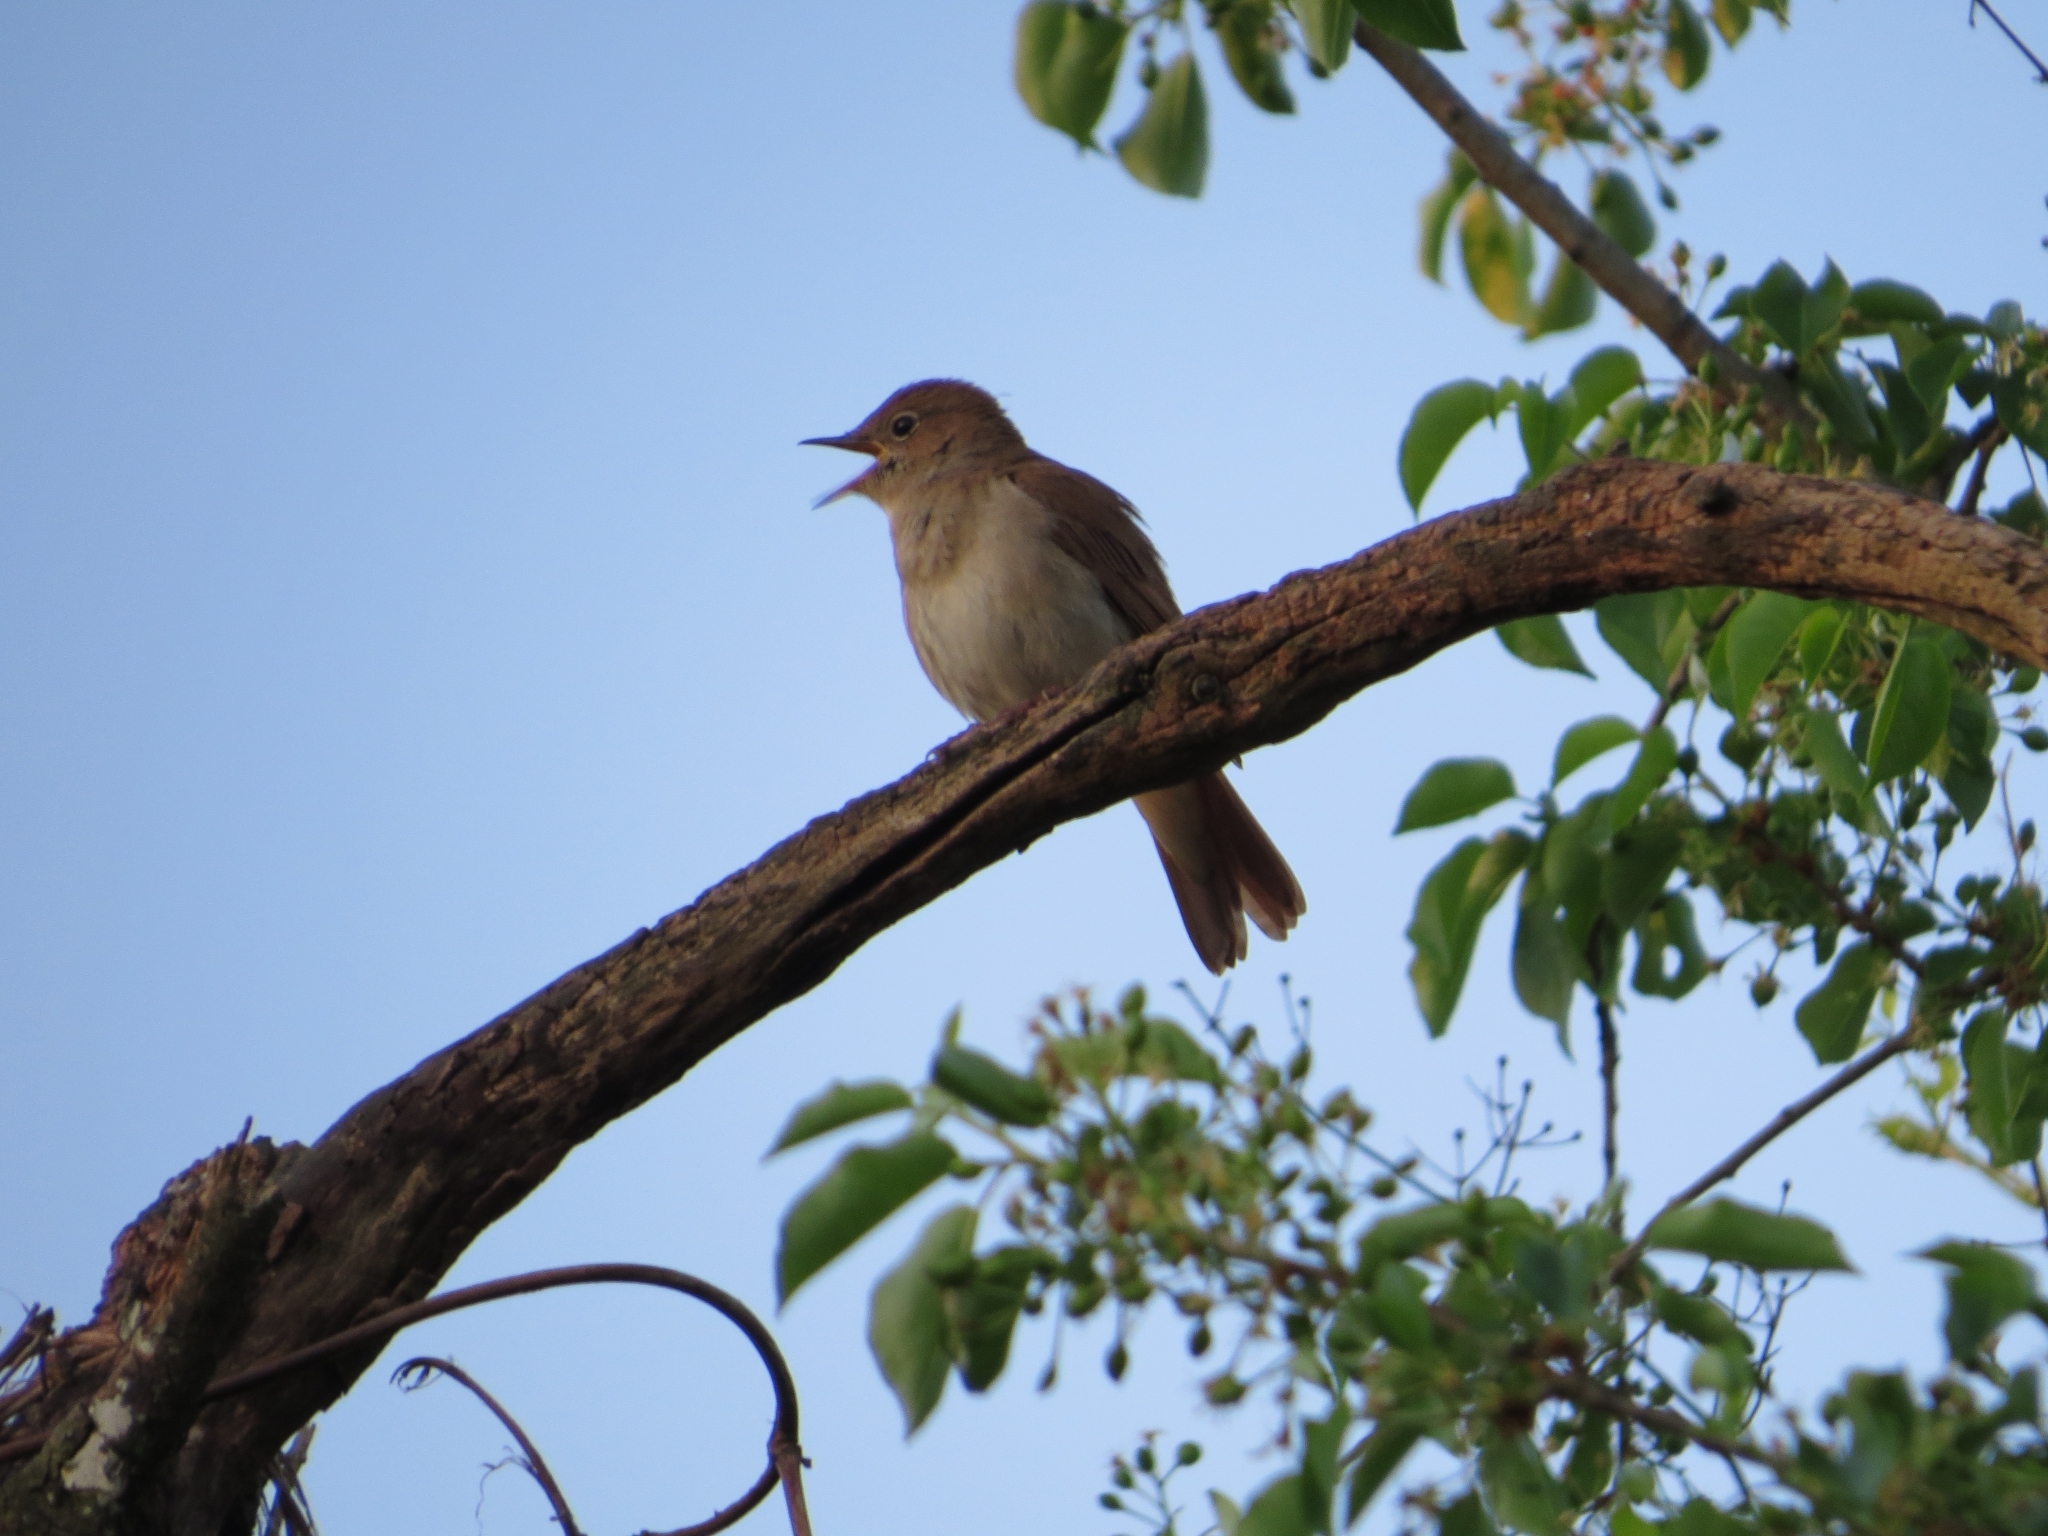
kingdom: Animalia
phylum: Chordata
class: Aves
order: Passeriformes
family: Muscicapidae
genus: Luscinia
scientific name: Luscinia megarhynchos
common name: Common nightingale
